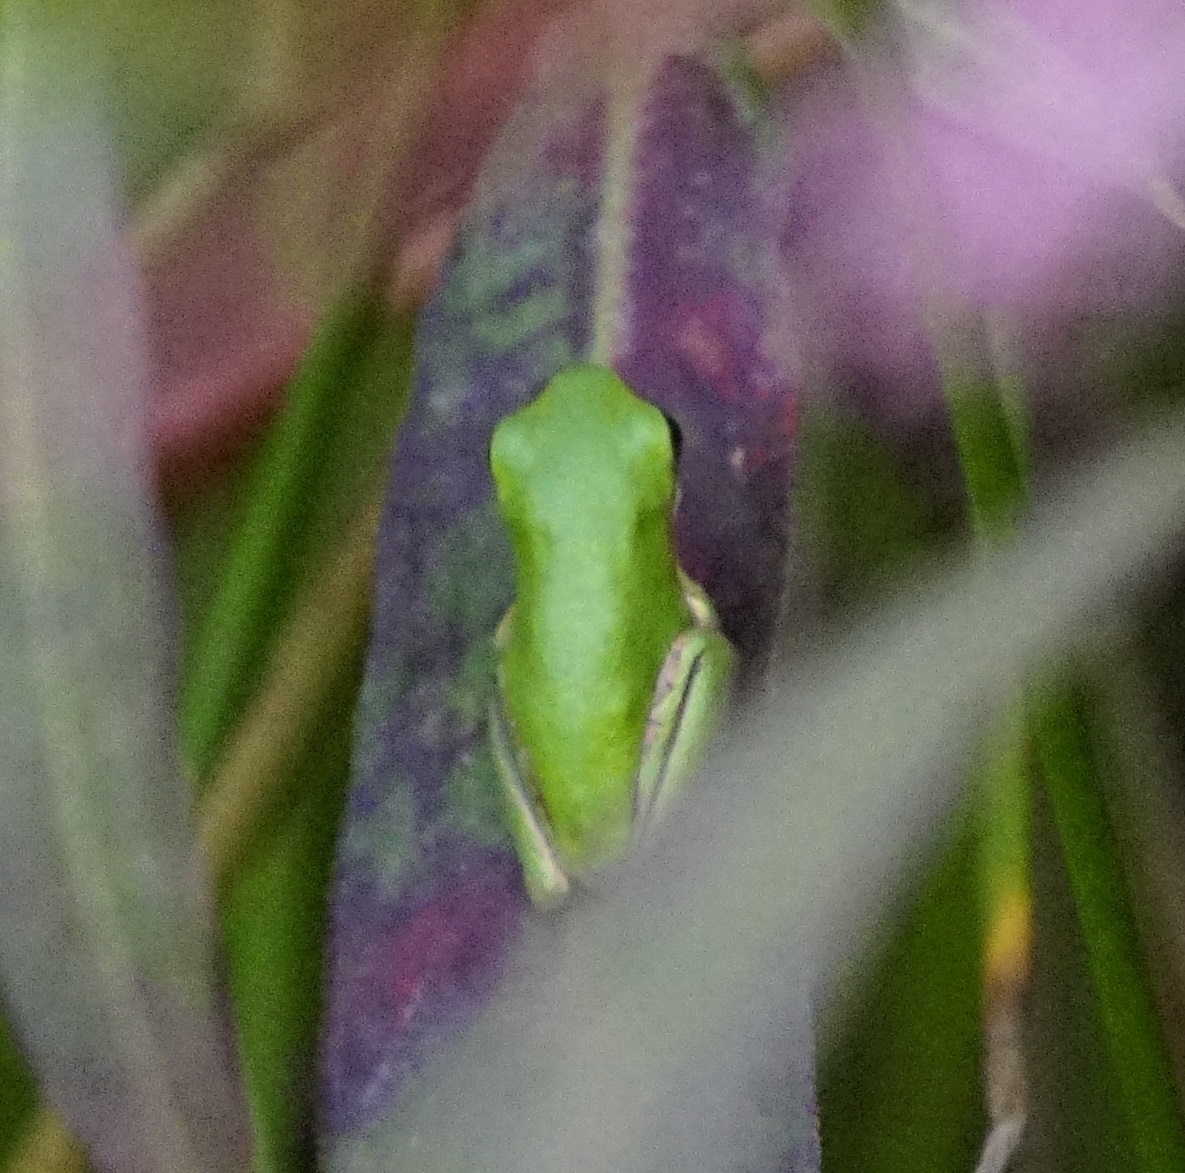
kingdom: Animalia
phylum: Chordata
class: Amphibia
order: Anura
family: Pelodryadidae
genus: Litoria
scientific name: Litoria fallax
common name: Eastern dwarf treefrog
